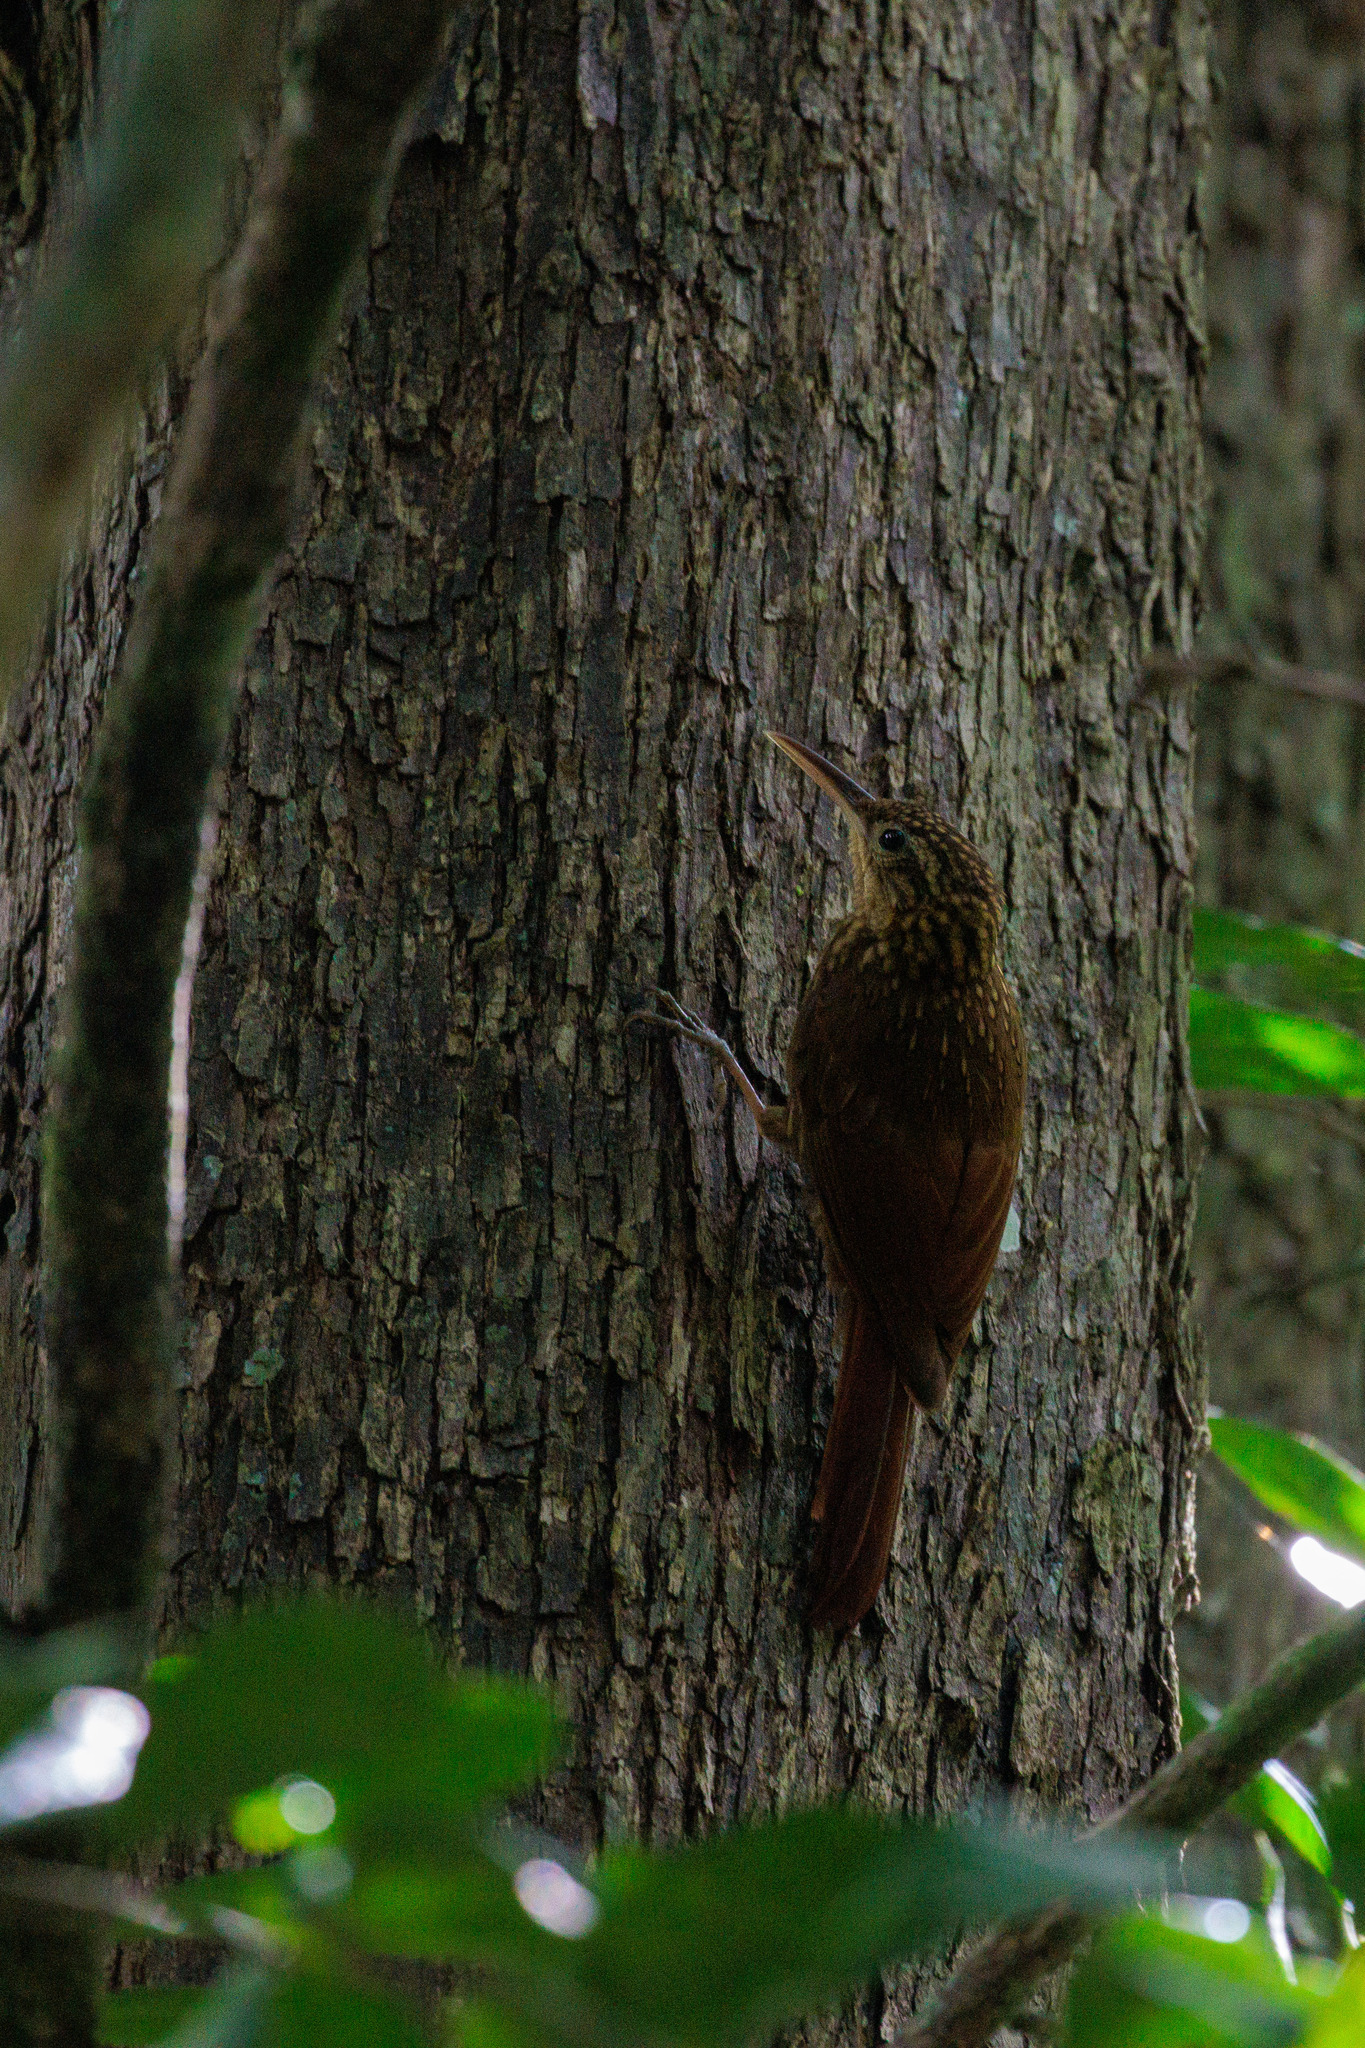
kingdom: Animalia
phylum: Chordata
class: Aves
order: Passeriformes
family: Furnariidae
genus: Xiphorhynchus
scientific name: Xiphorhynchus fuscus
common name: Lesser woodcreeper
